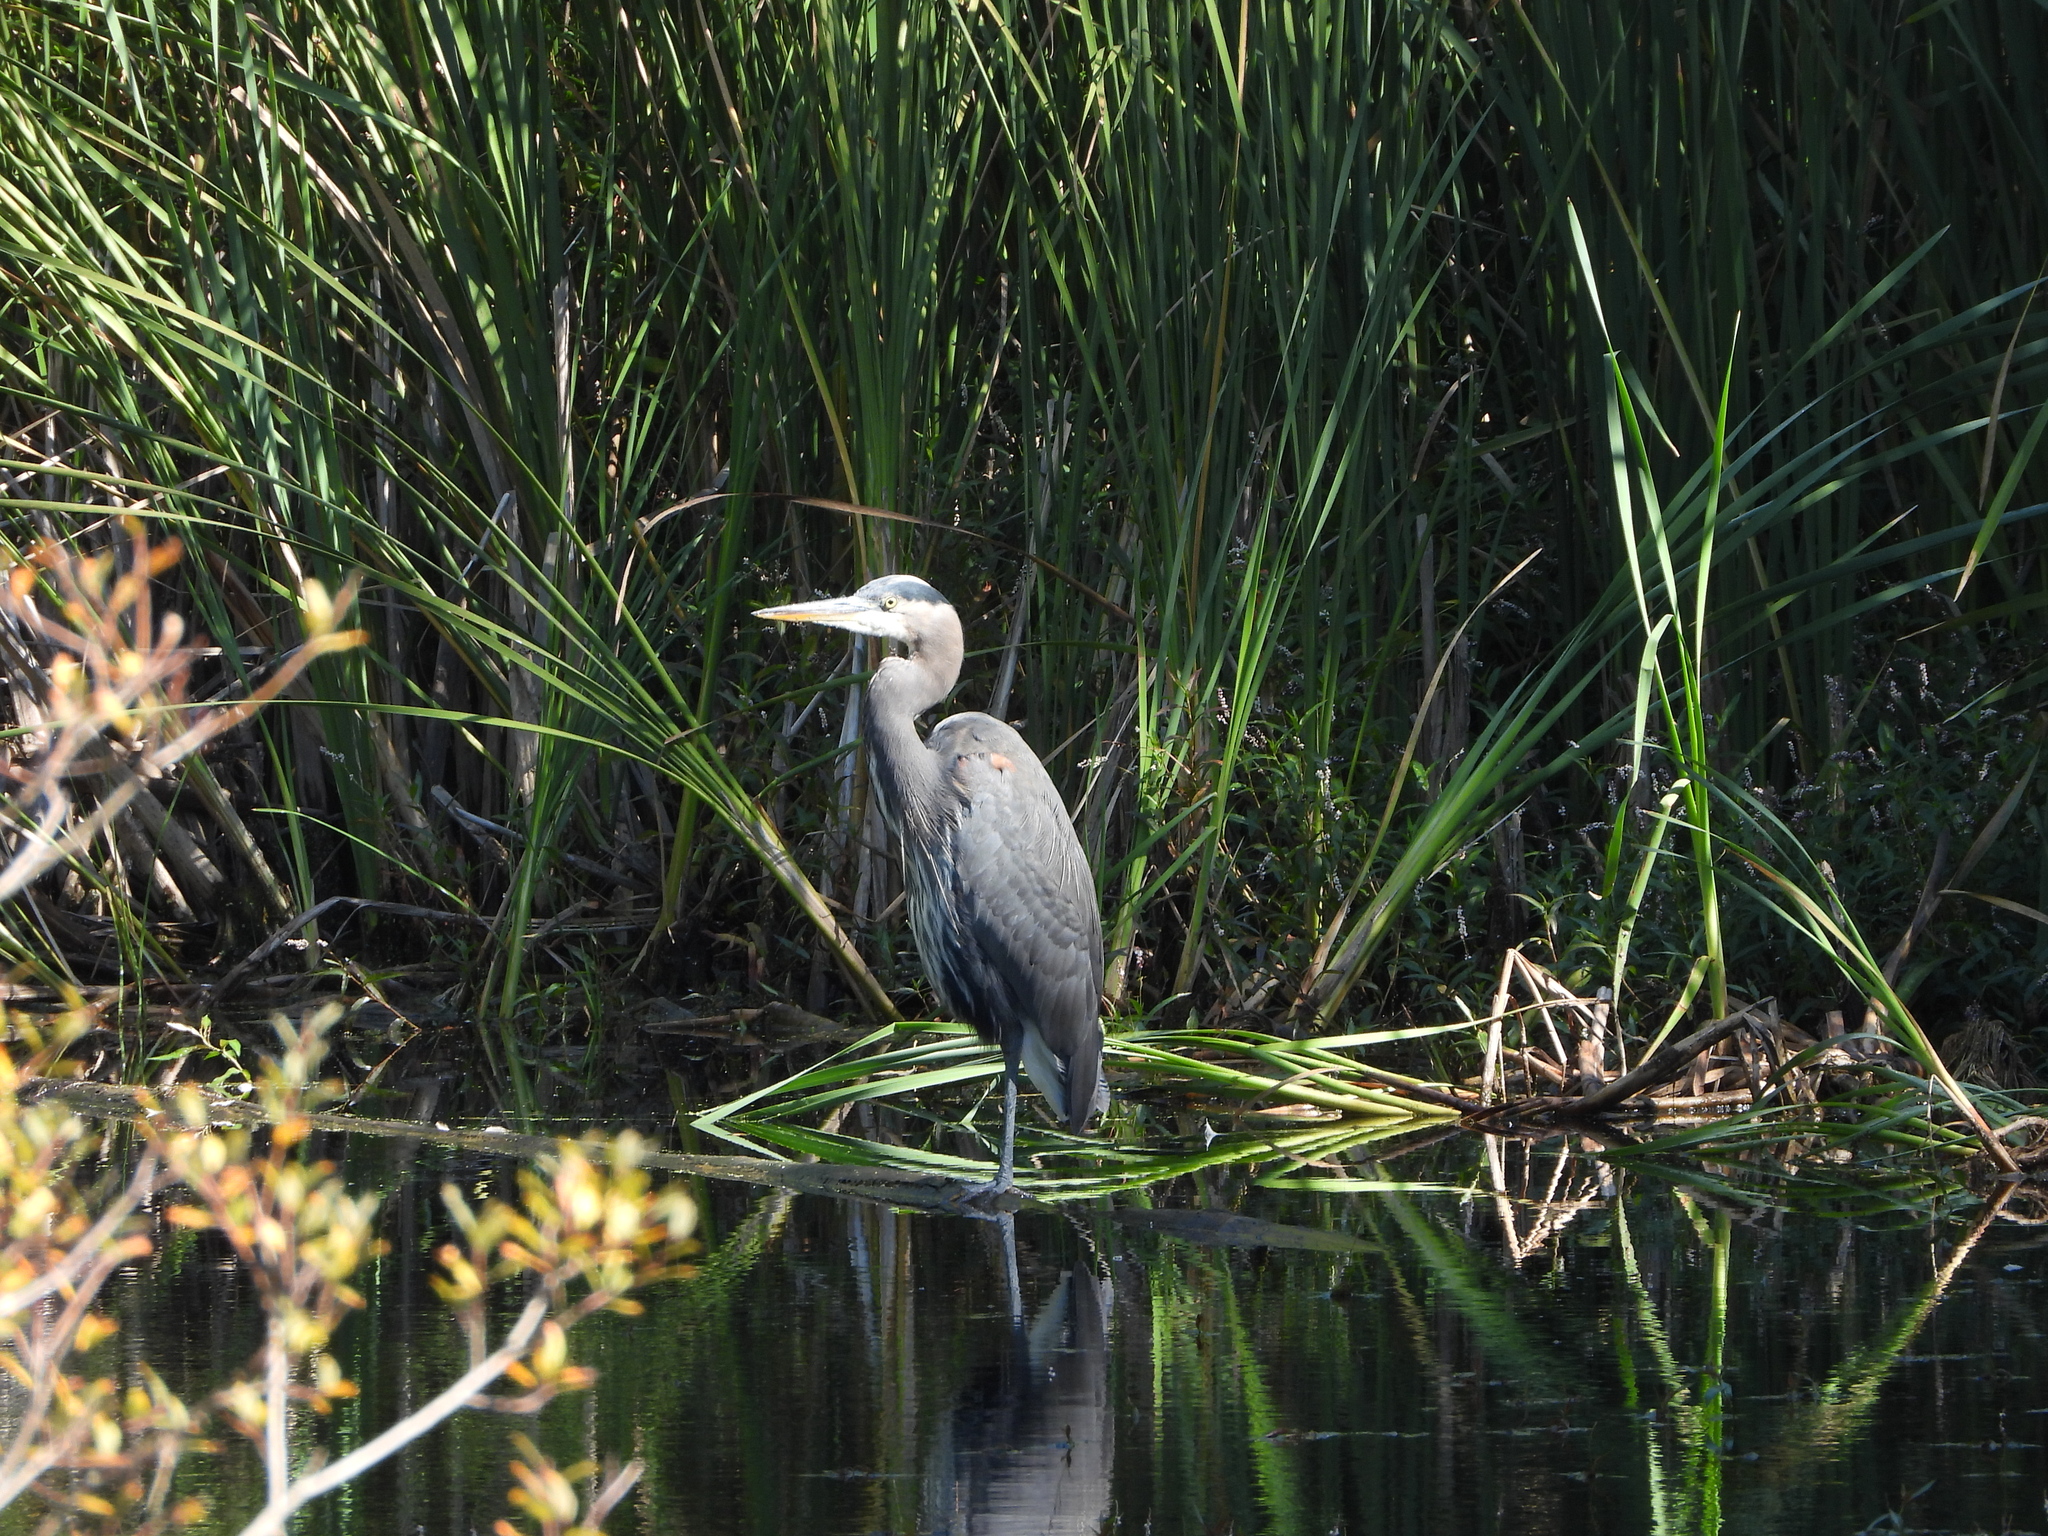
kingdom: Animalia
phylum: Chordata
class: Aves
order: Pelecaniformes
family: Ardeidae
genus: Ardea
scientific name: Ardea herodias
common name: Great blue heron
